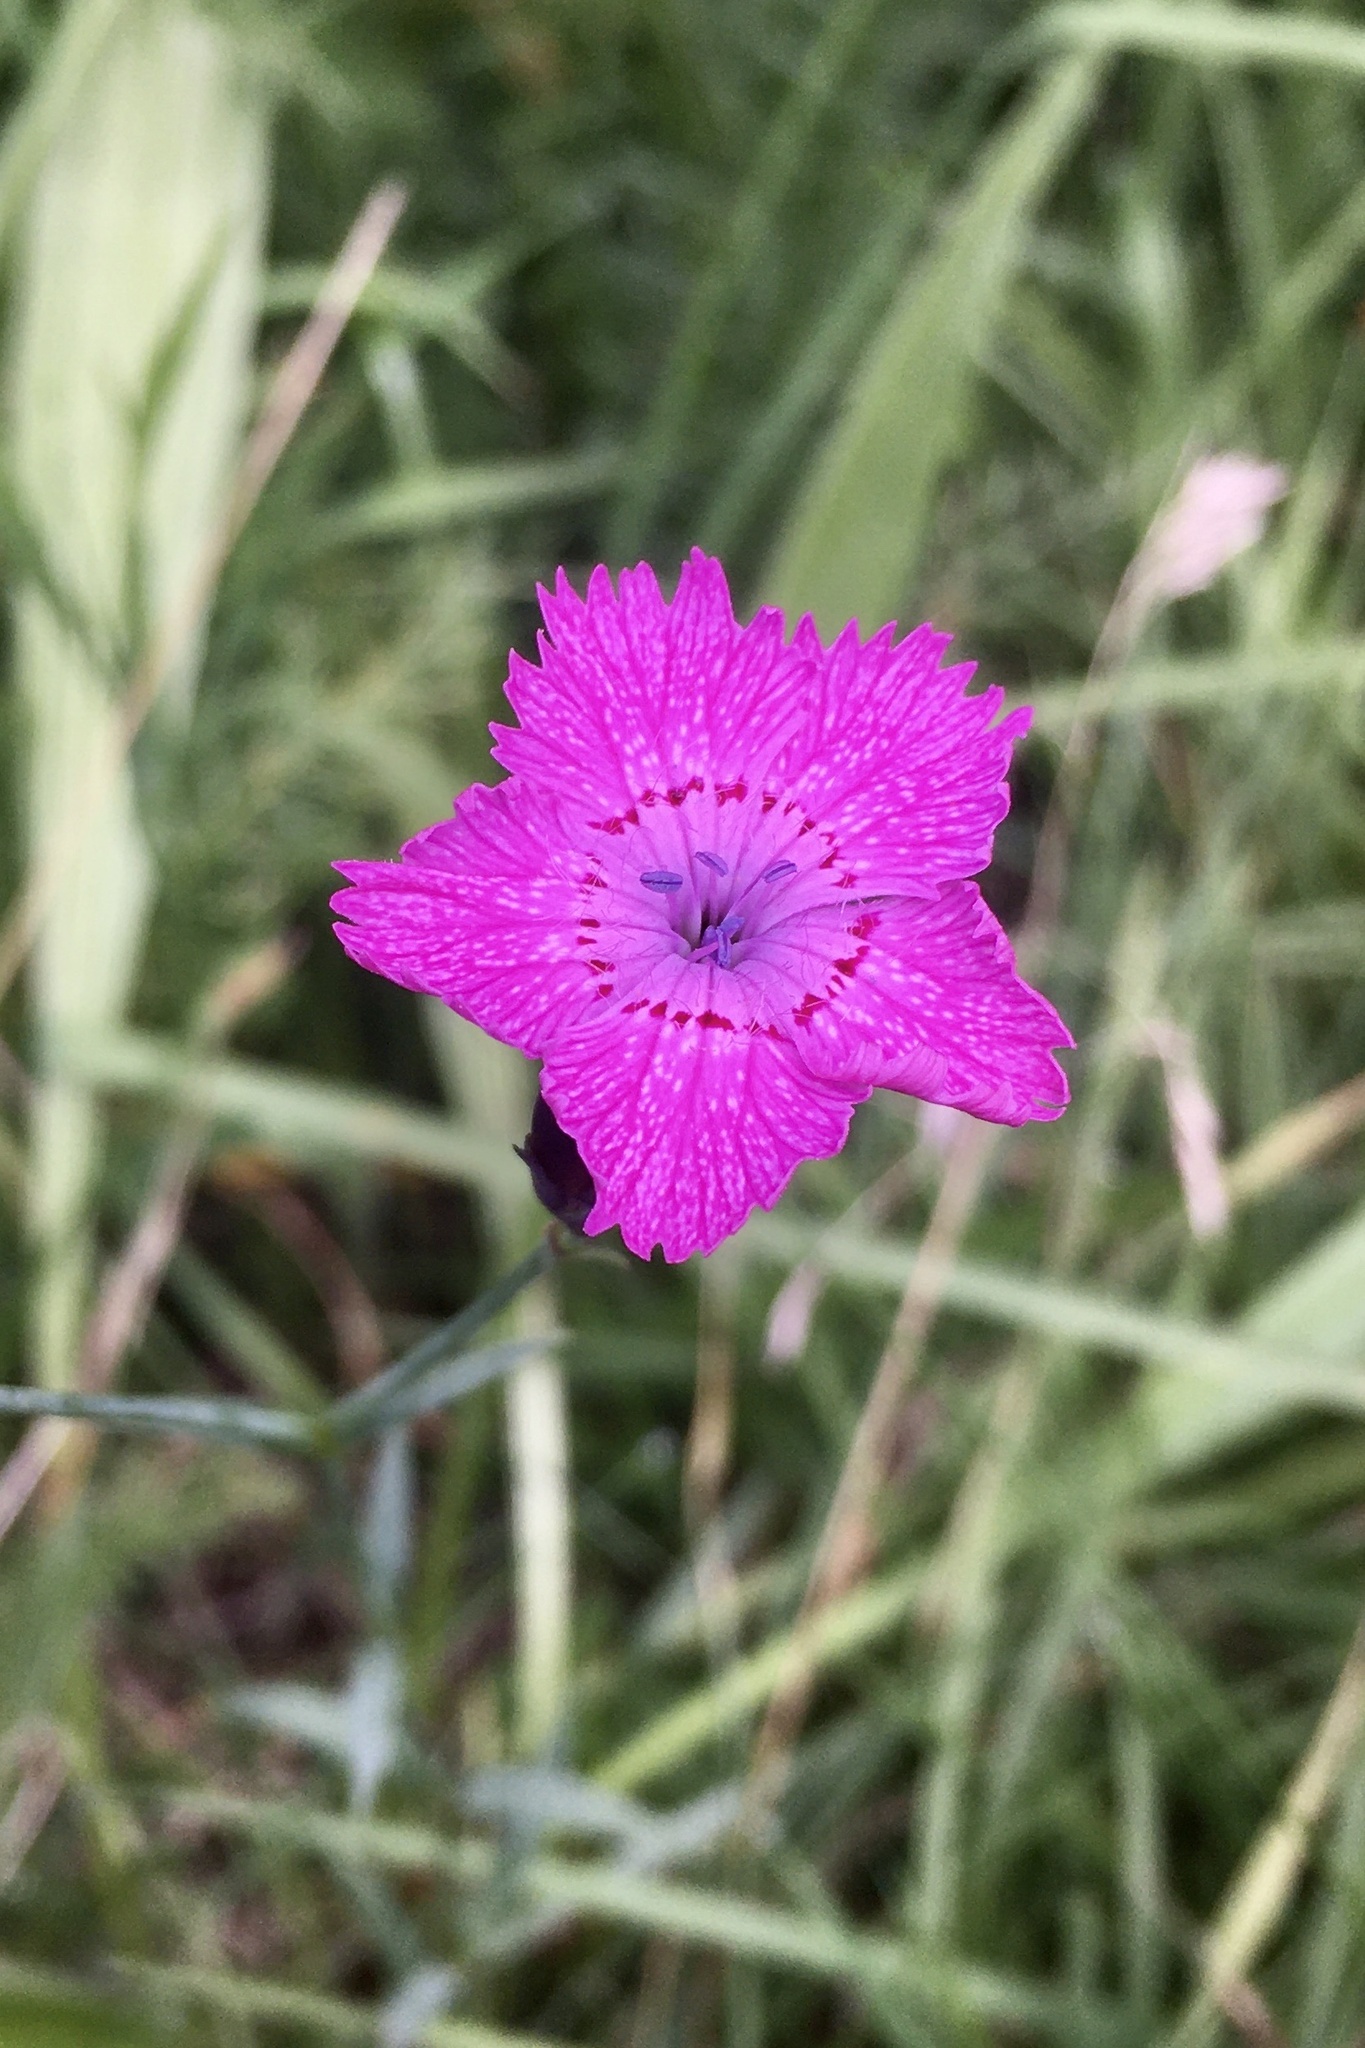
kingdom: Plantae
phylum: Tracheophyta
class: Magnoliopsida
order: Caryophyllales
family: Caryophyllaceae
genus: Dianthus
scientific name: Dianthus seguieri
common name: Ragged pink
